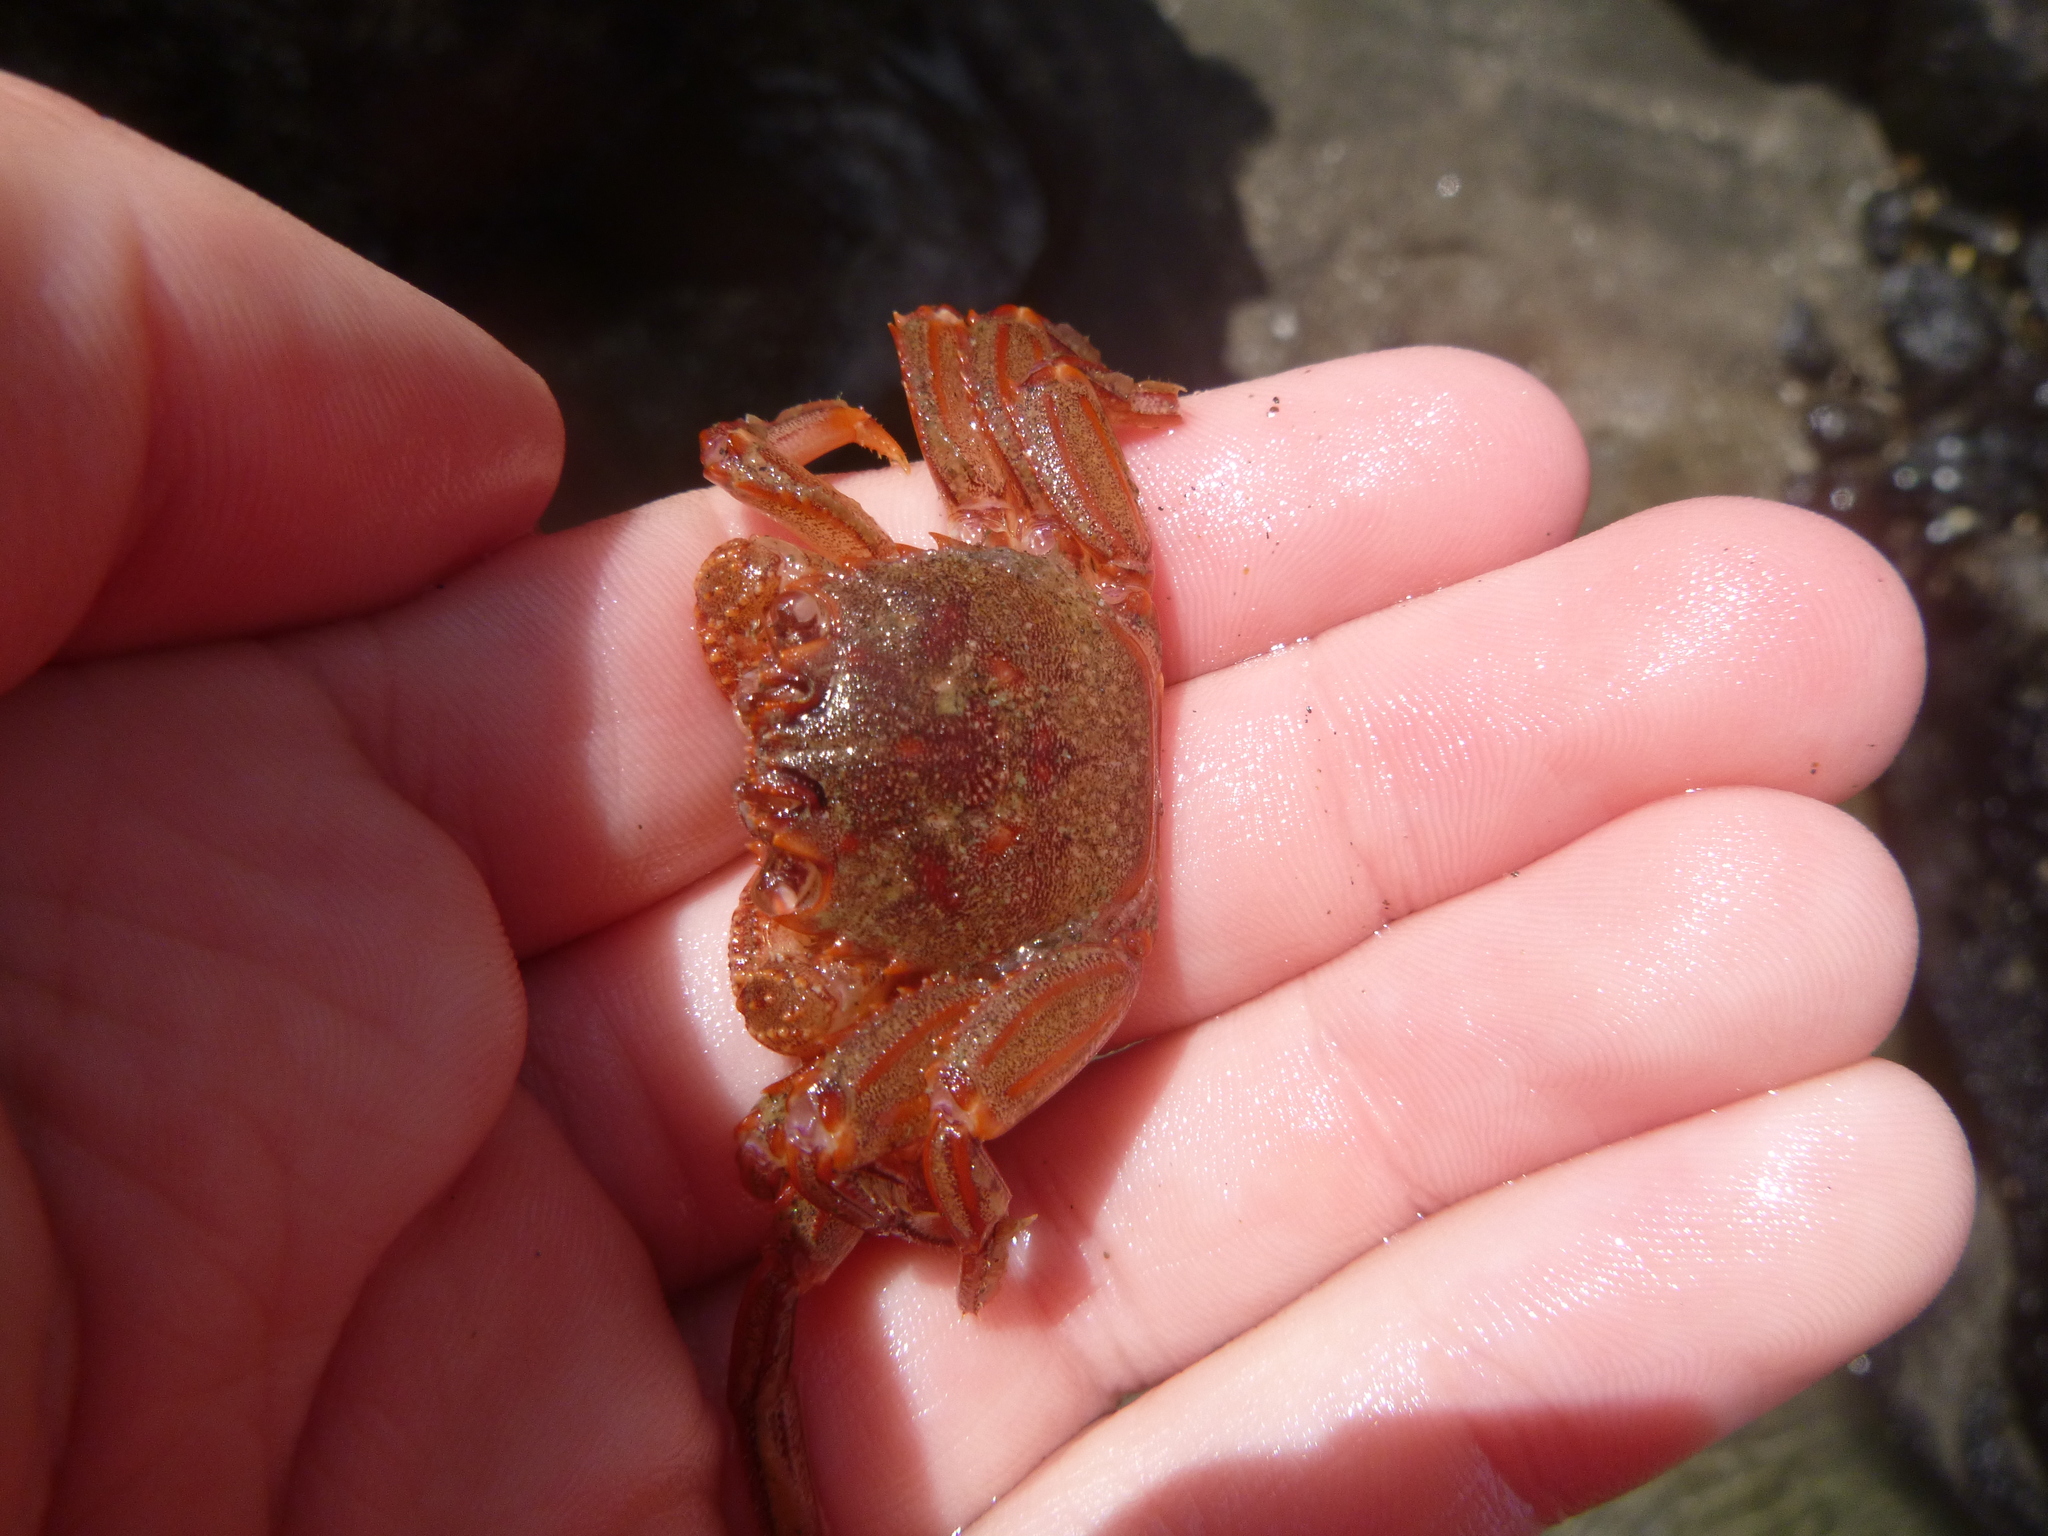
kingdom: Animalia
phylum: Arthropoda
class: Malacostraca
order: Decapoda
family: Plagusiidae
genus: Guinusia
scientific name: Guinusia chabrus
